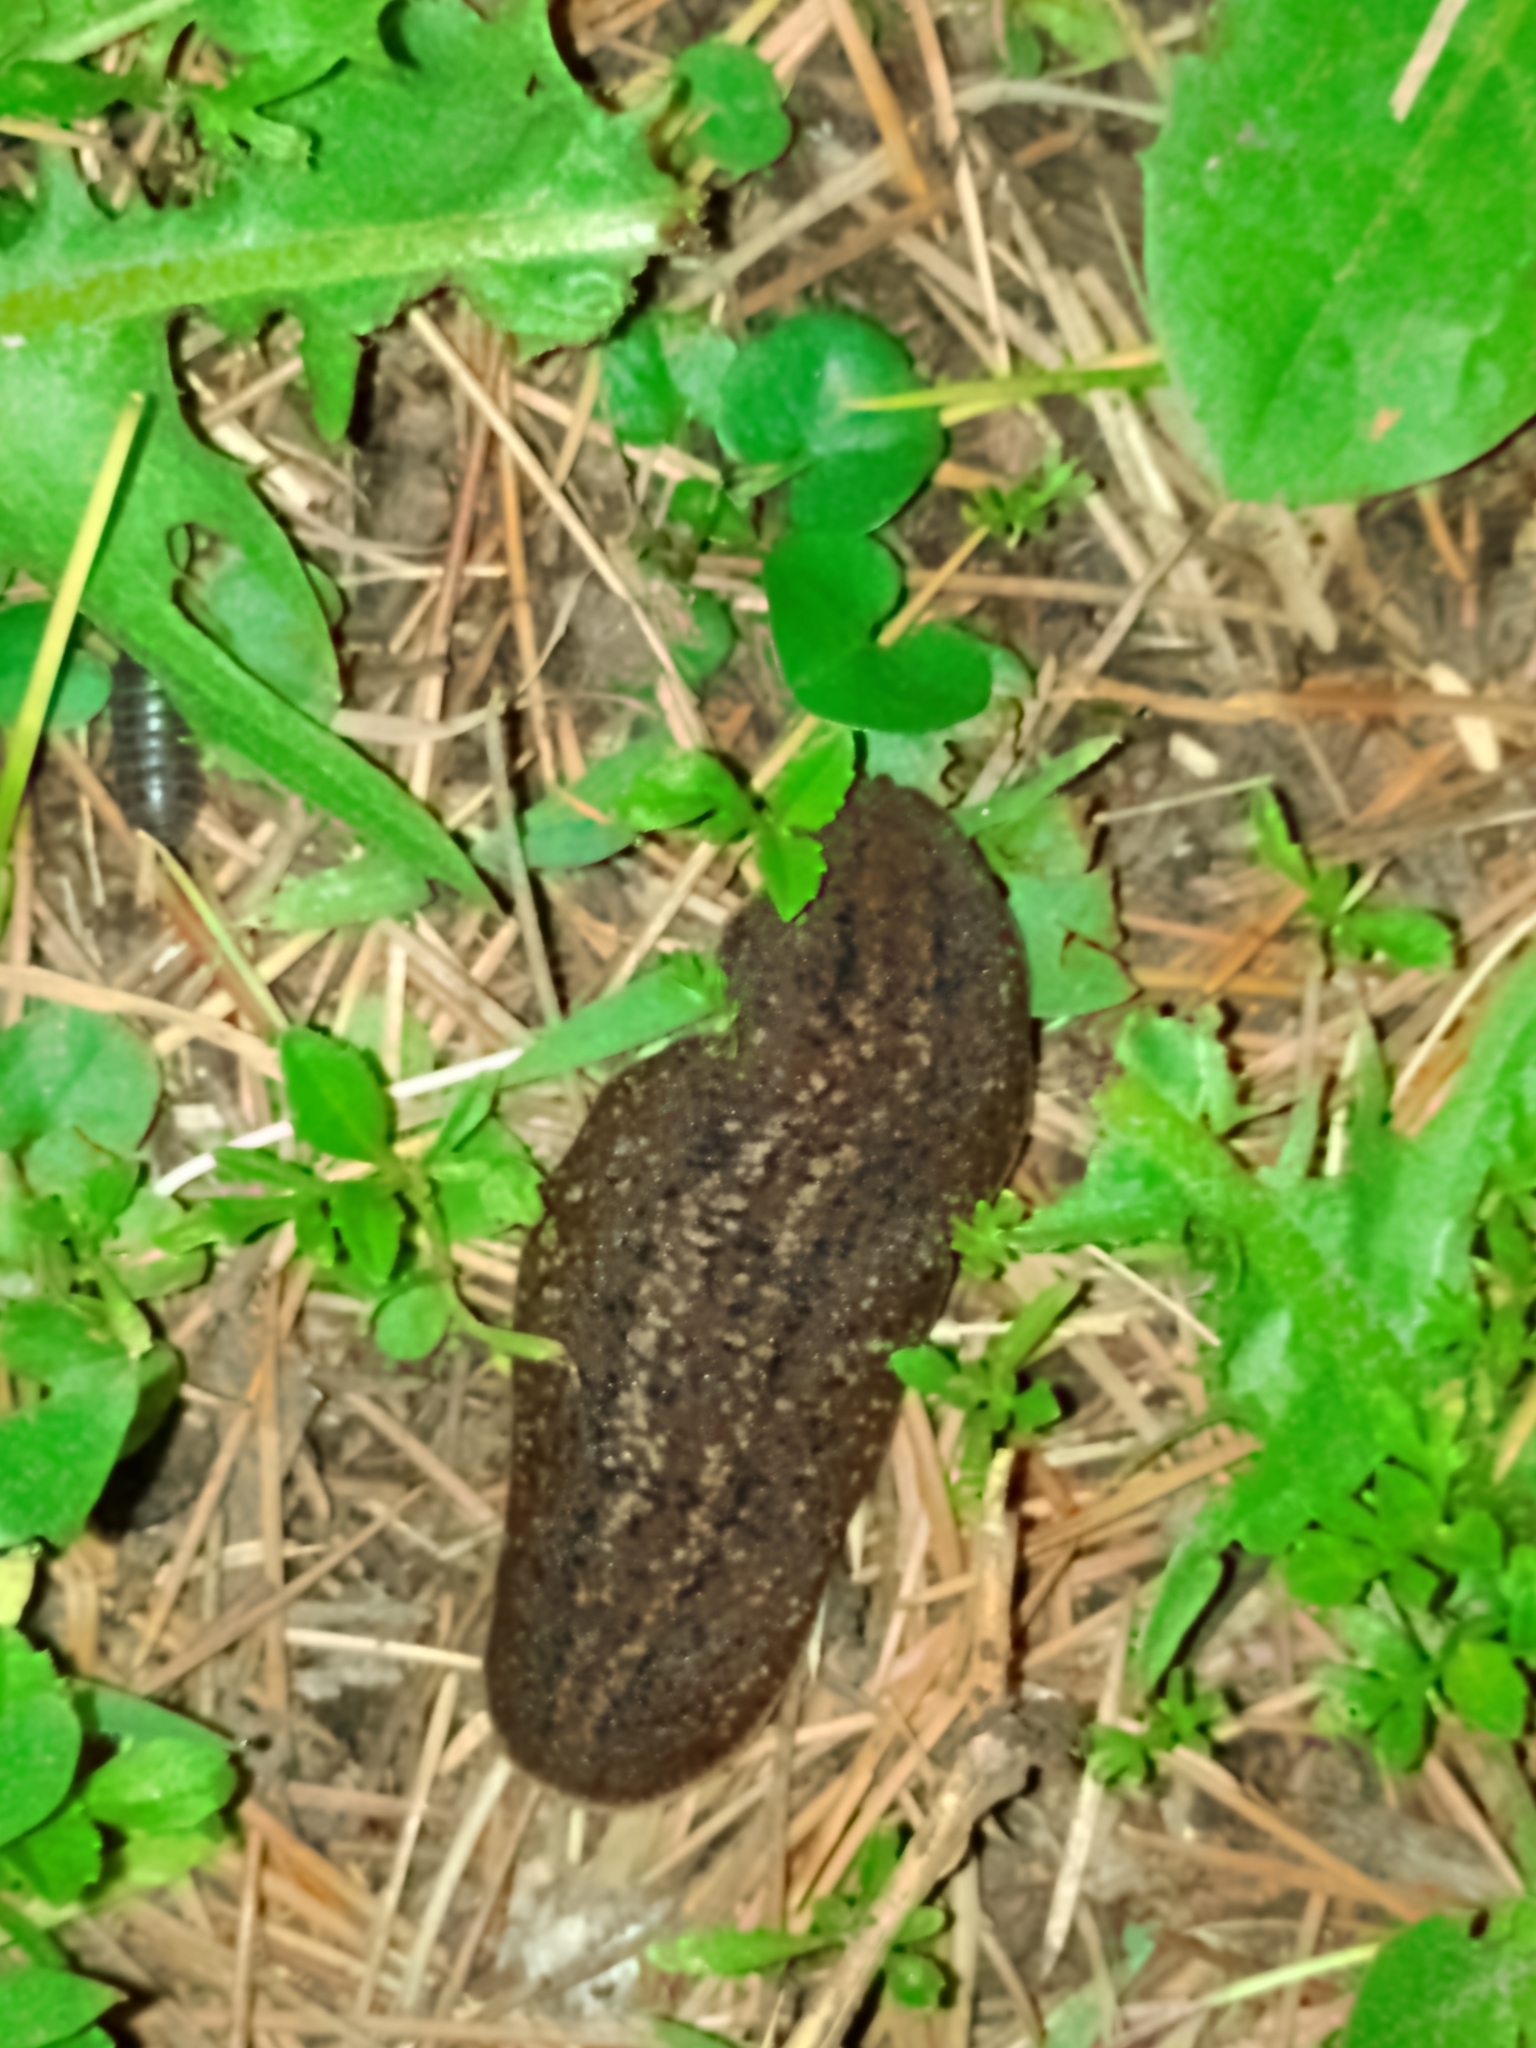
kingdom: Animalia
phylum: Mollusca
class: Gastropoda
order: Systellommatophora
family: Veronicellidae
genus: Phyllocaulis
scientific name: Phyllocaulis soleiformis
